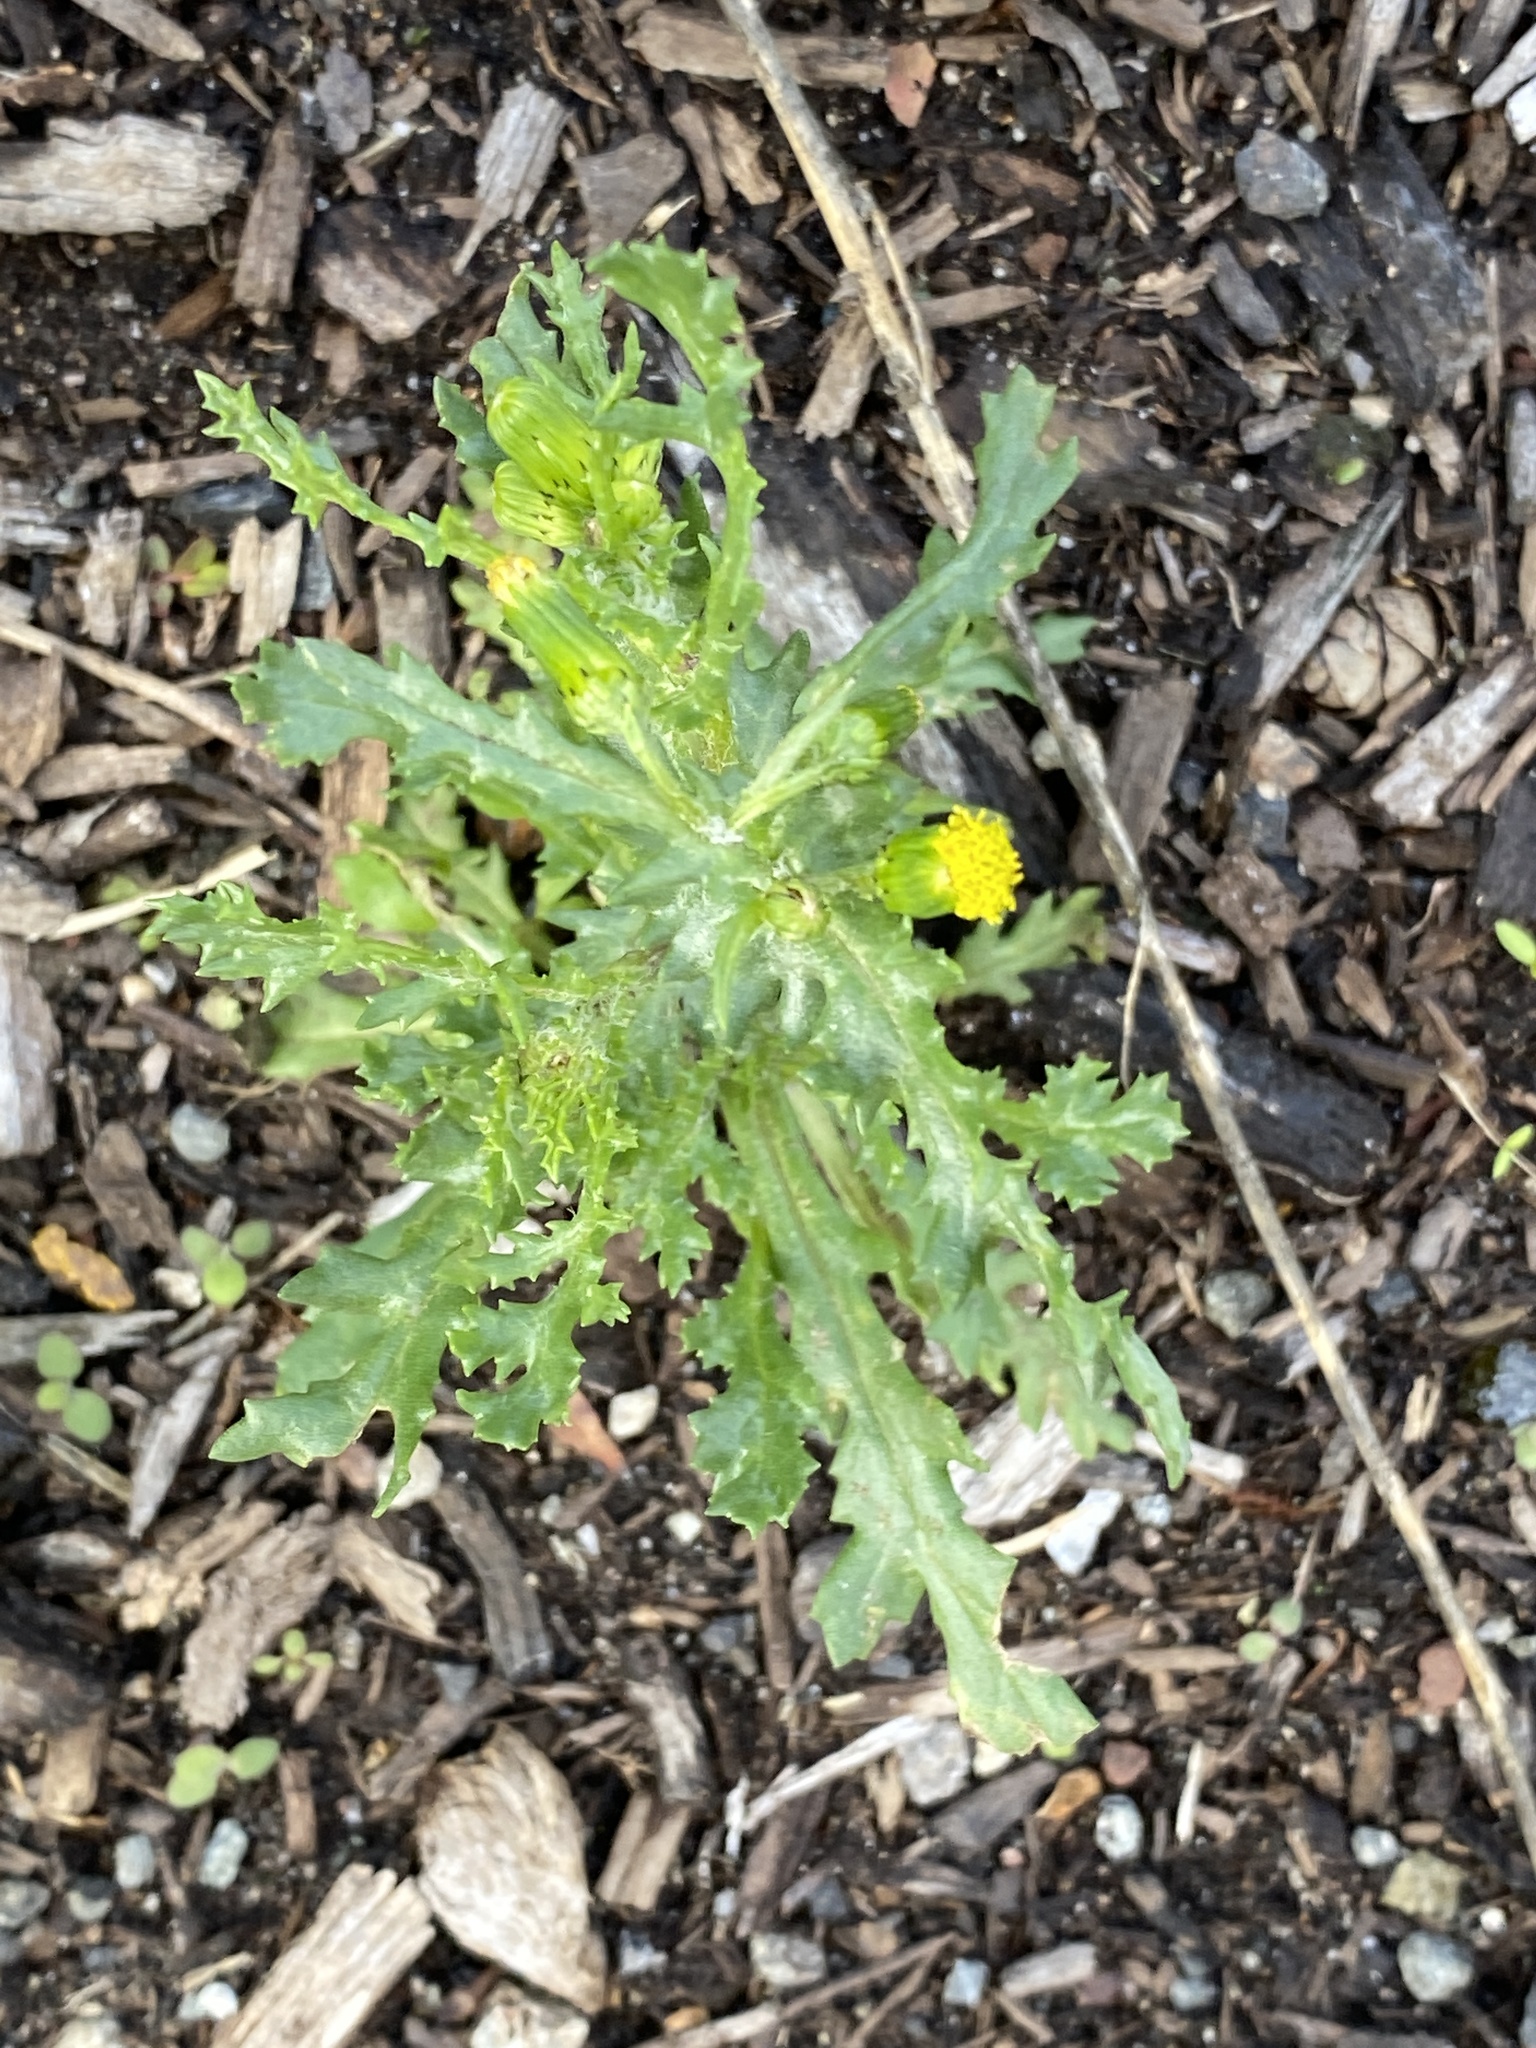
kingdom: Plantae
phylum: Tracheophyta
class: Magnoliopsida
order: Asterales
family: Asteraceae
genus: Senecio
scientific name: Senecio vulgaris
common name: Old-man-in-the-spring
